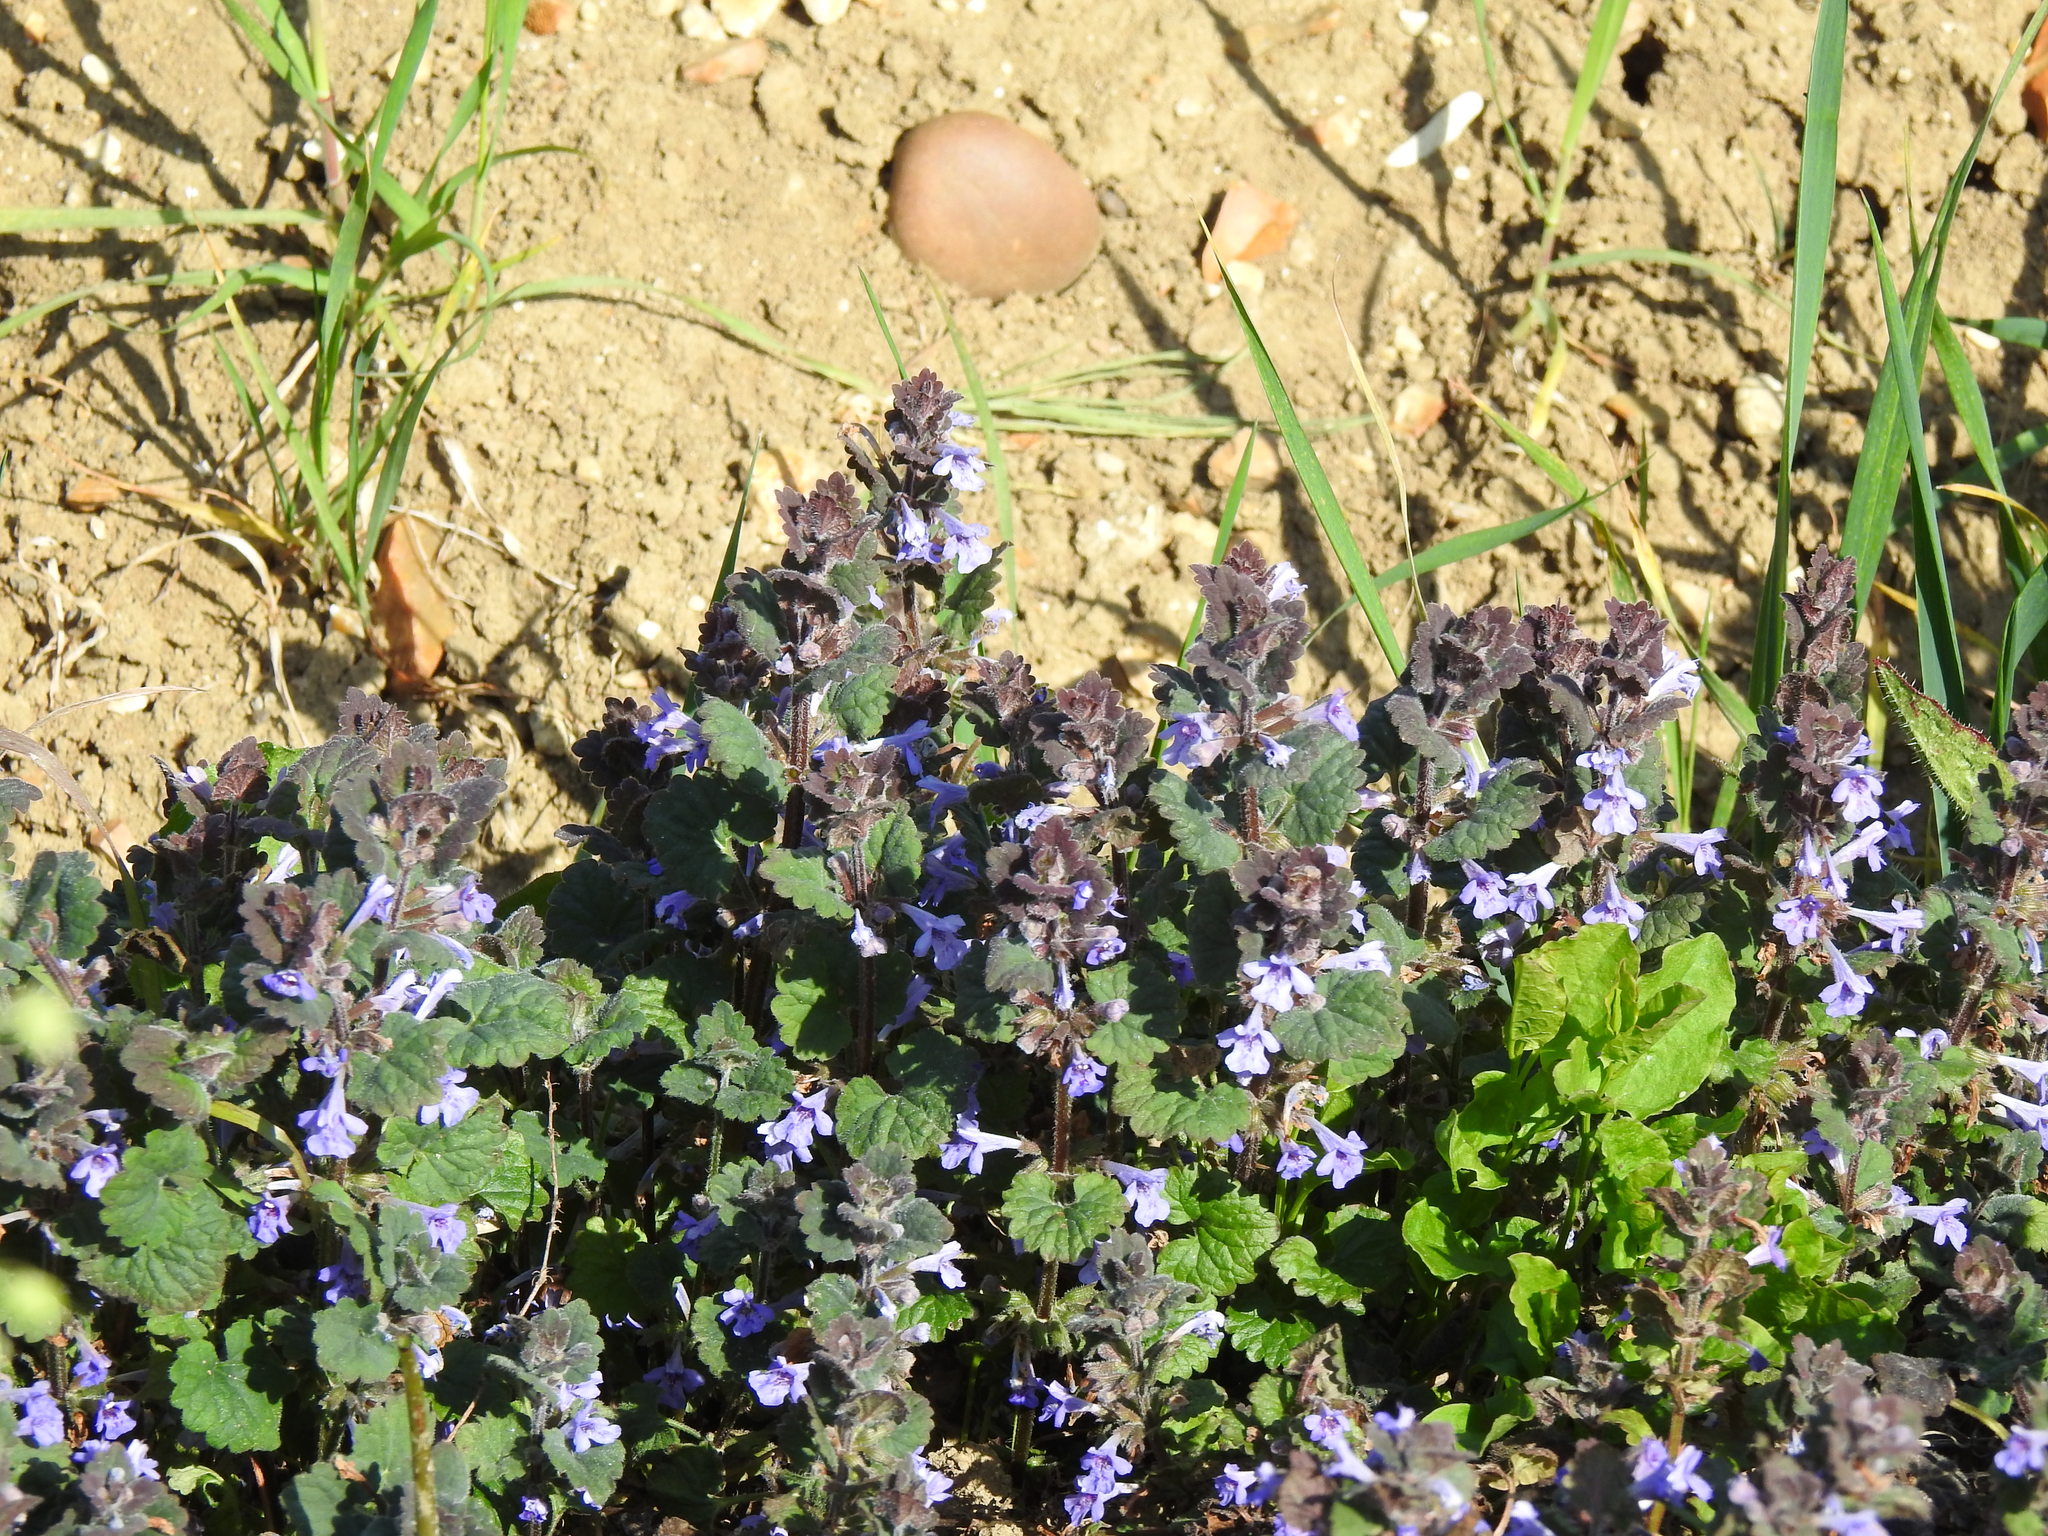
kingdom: Plantae
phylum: Tracheophyta
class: Magnoliopsida
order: Lamiales
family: Lamiaceae
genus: Glechoma
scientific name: Glechoma hederacea
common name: Ground ivy
